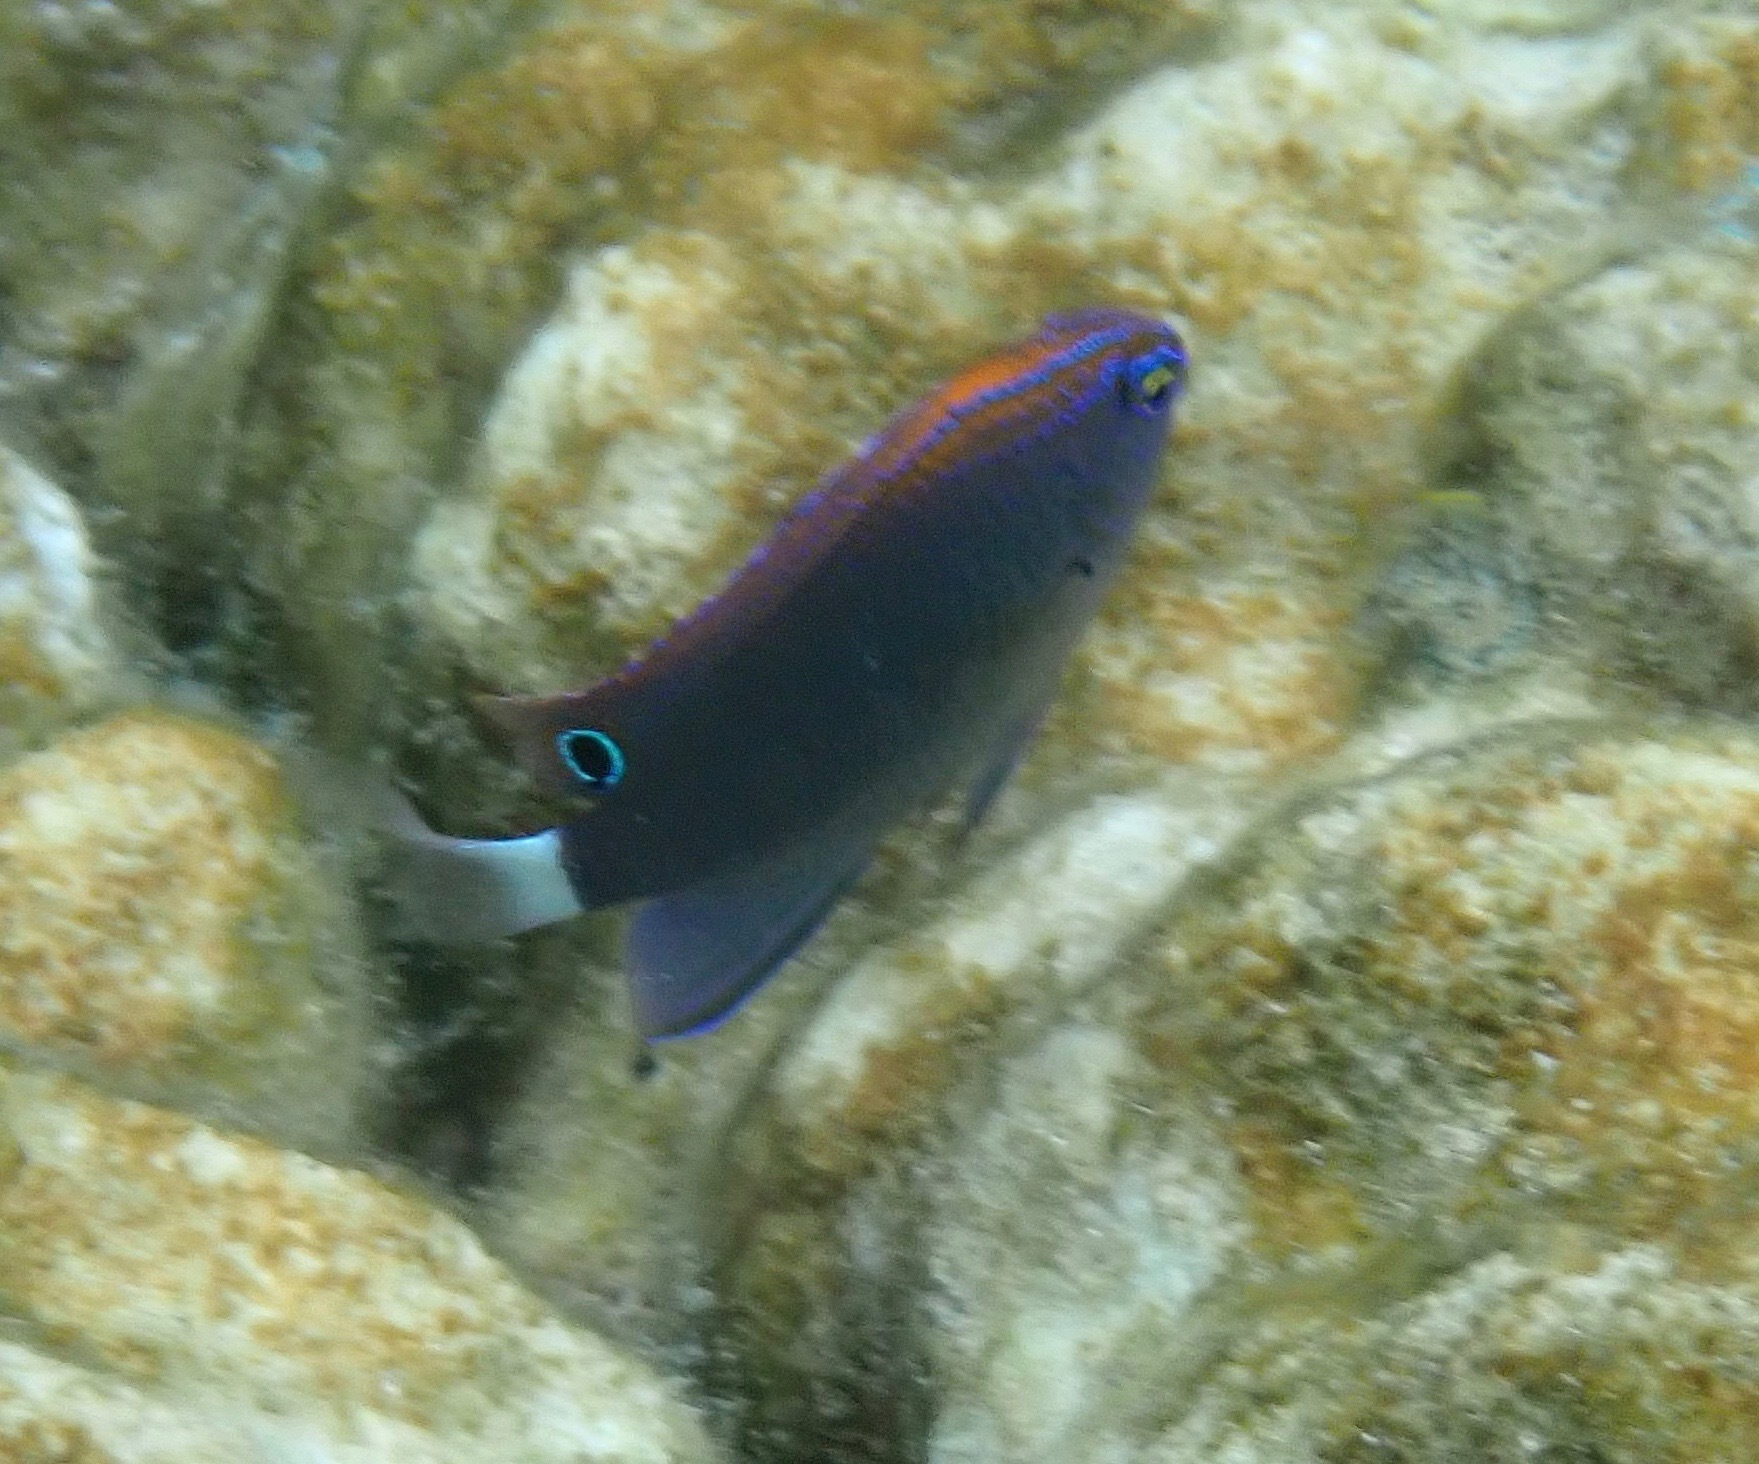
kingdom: Animalia
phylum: Chordata
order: Perciformes
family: Pomacentridae
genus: Pomacentrus
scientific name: Pomacentrus bankanensis
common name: Speckled damsel
